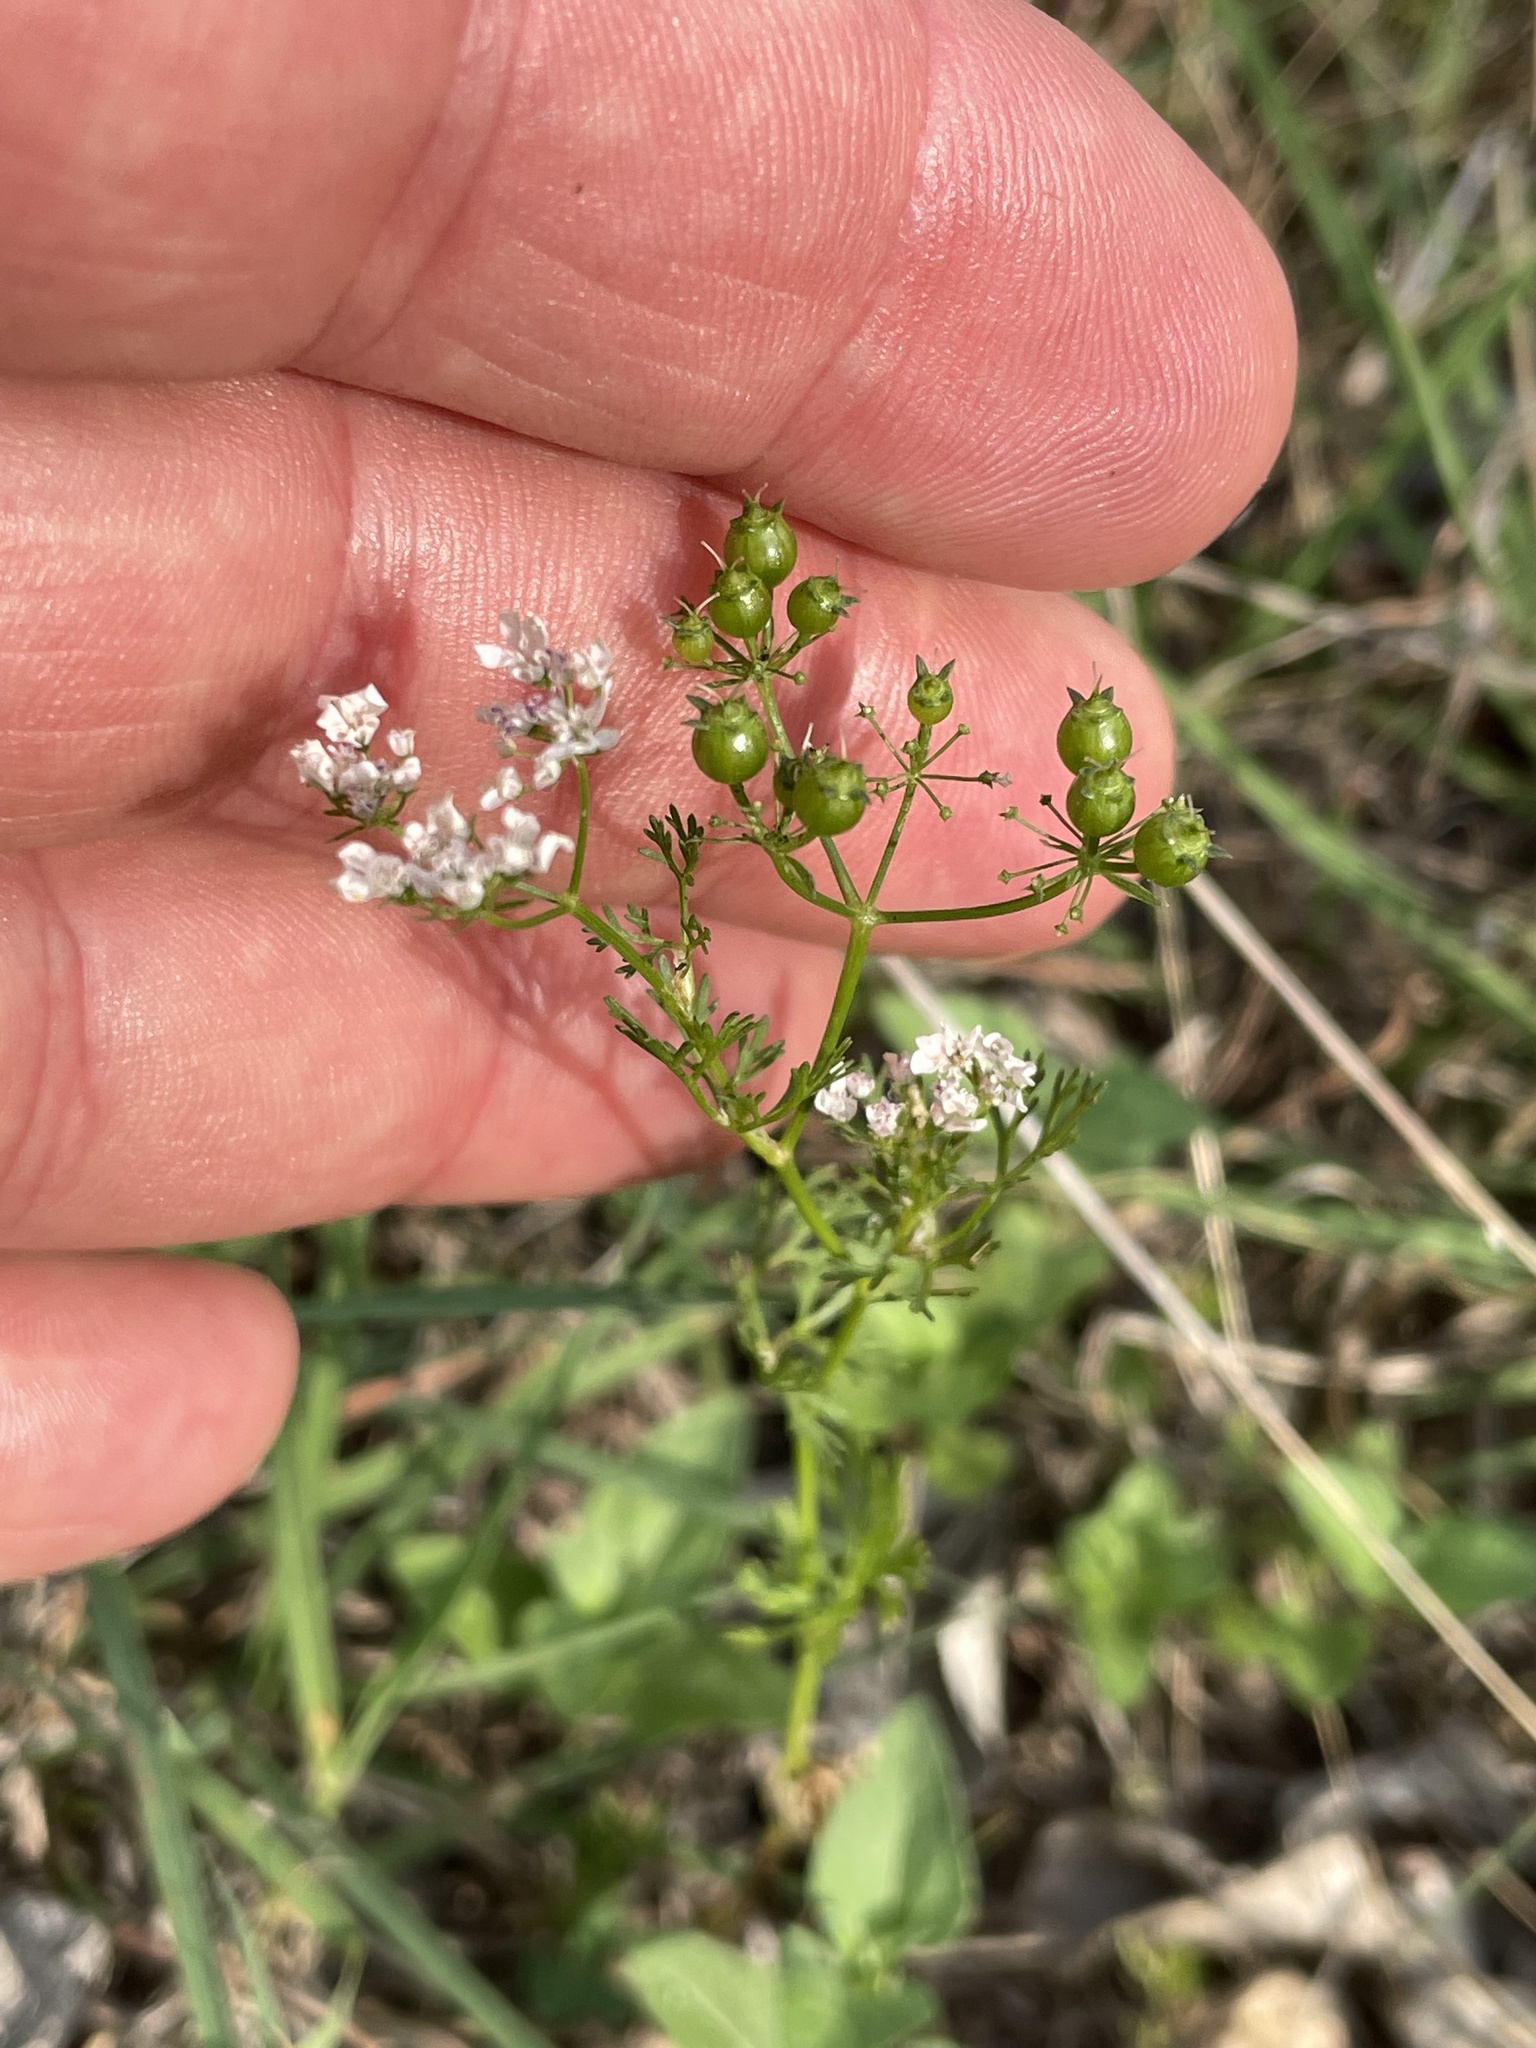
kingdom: Plantae
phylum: Tracheophyta
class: Magnoliopsida
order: Apiales
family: Apiaceae
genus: Coriandrum
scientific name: Coriandrum sativum
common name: Coriander
